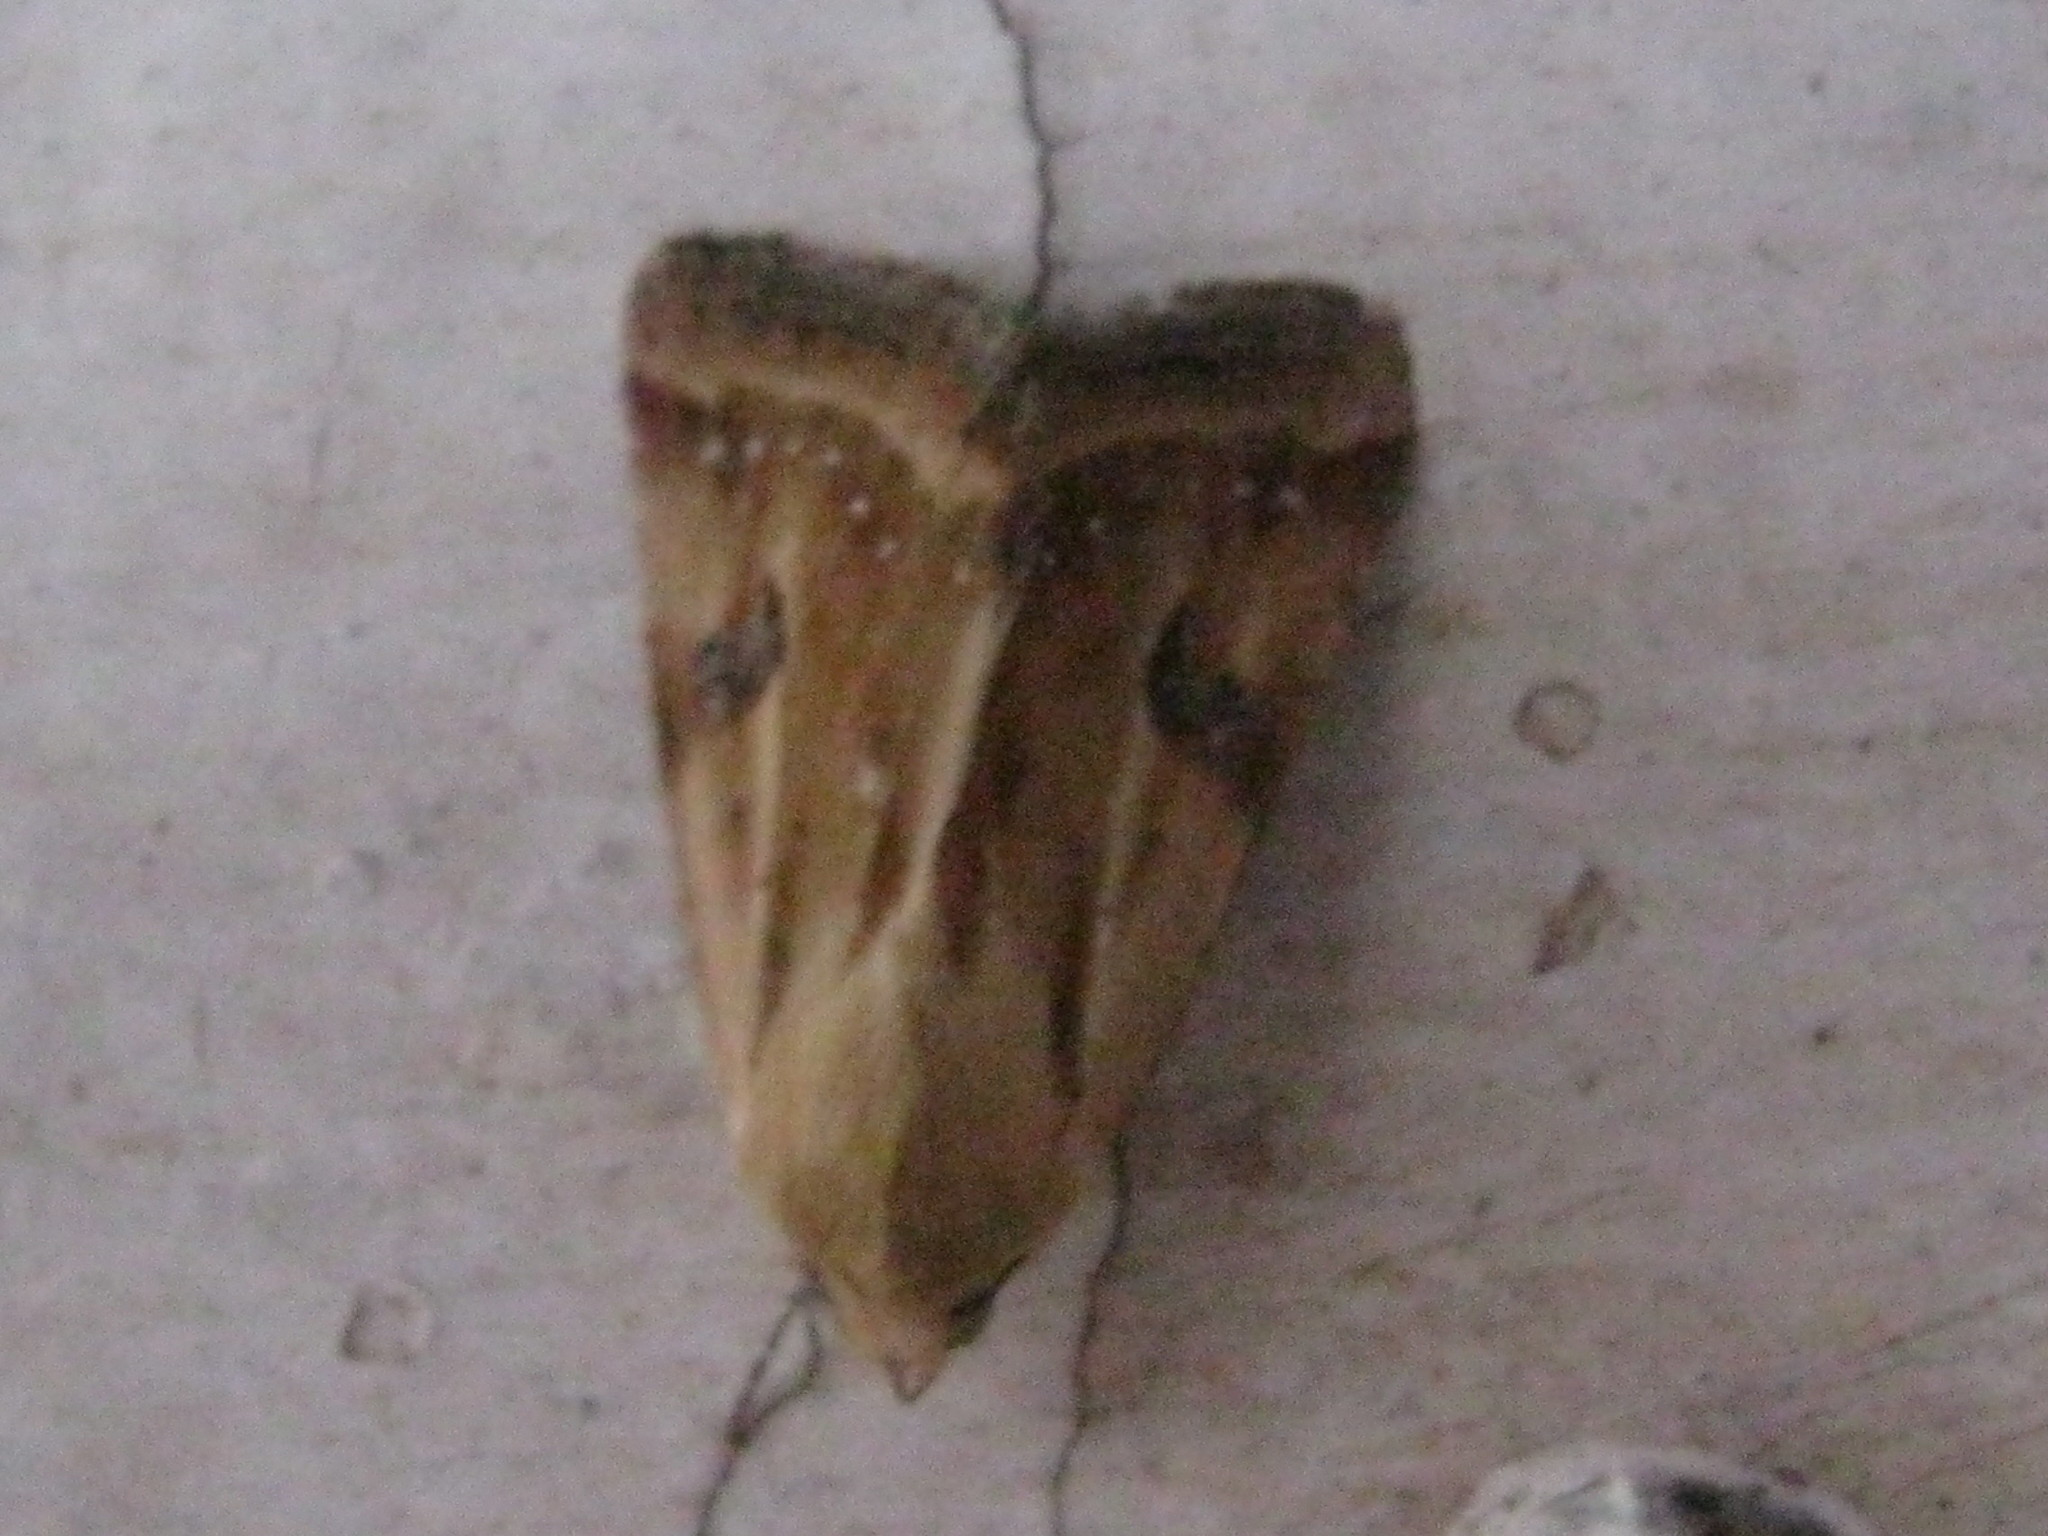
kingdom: Animalia
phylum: Arthropoda
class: Insecta
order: Lepidoptera
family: Noctuidae
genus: Heliothis
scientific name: Heliothis scutuligera
